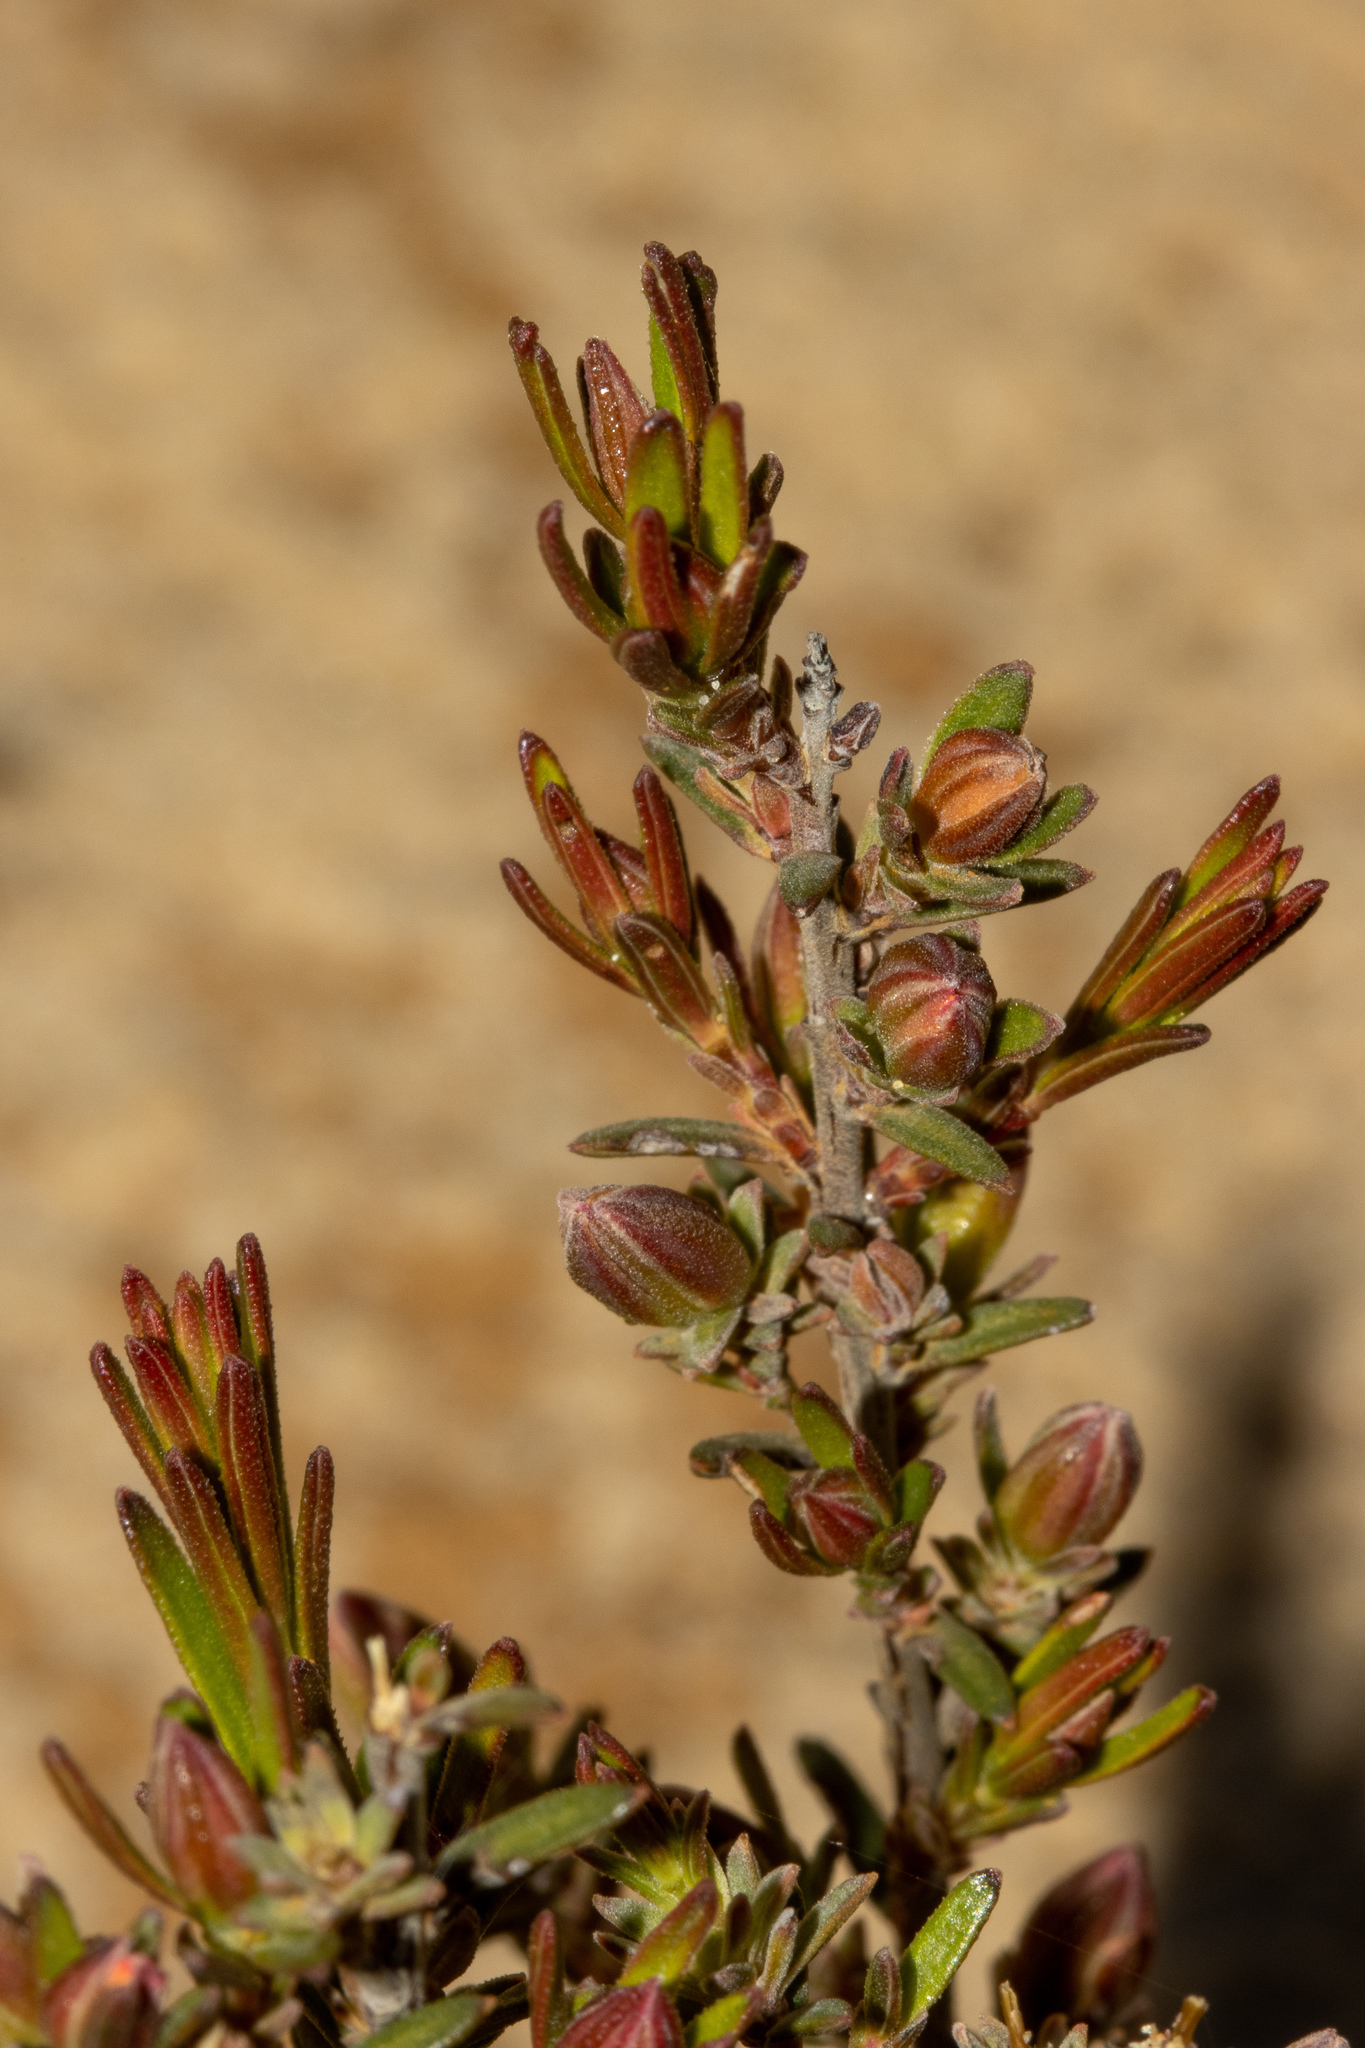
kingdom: Plantae
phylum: Tracheophyta
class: Magnoliopsida
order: Dilleniales
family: Dilleniaceae
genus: Hibbertia
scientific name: Hibbertia devitata
